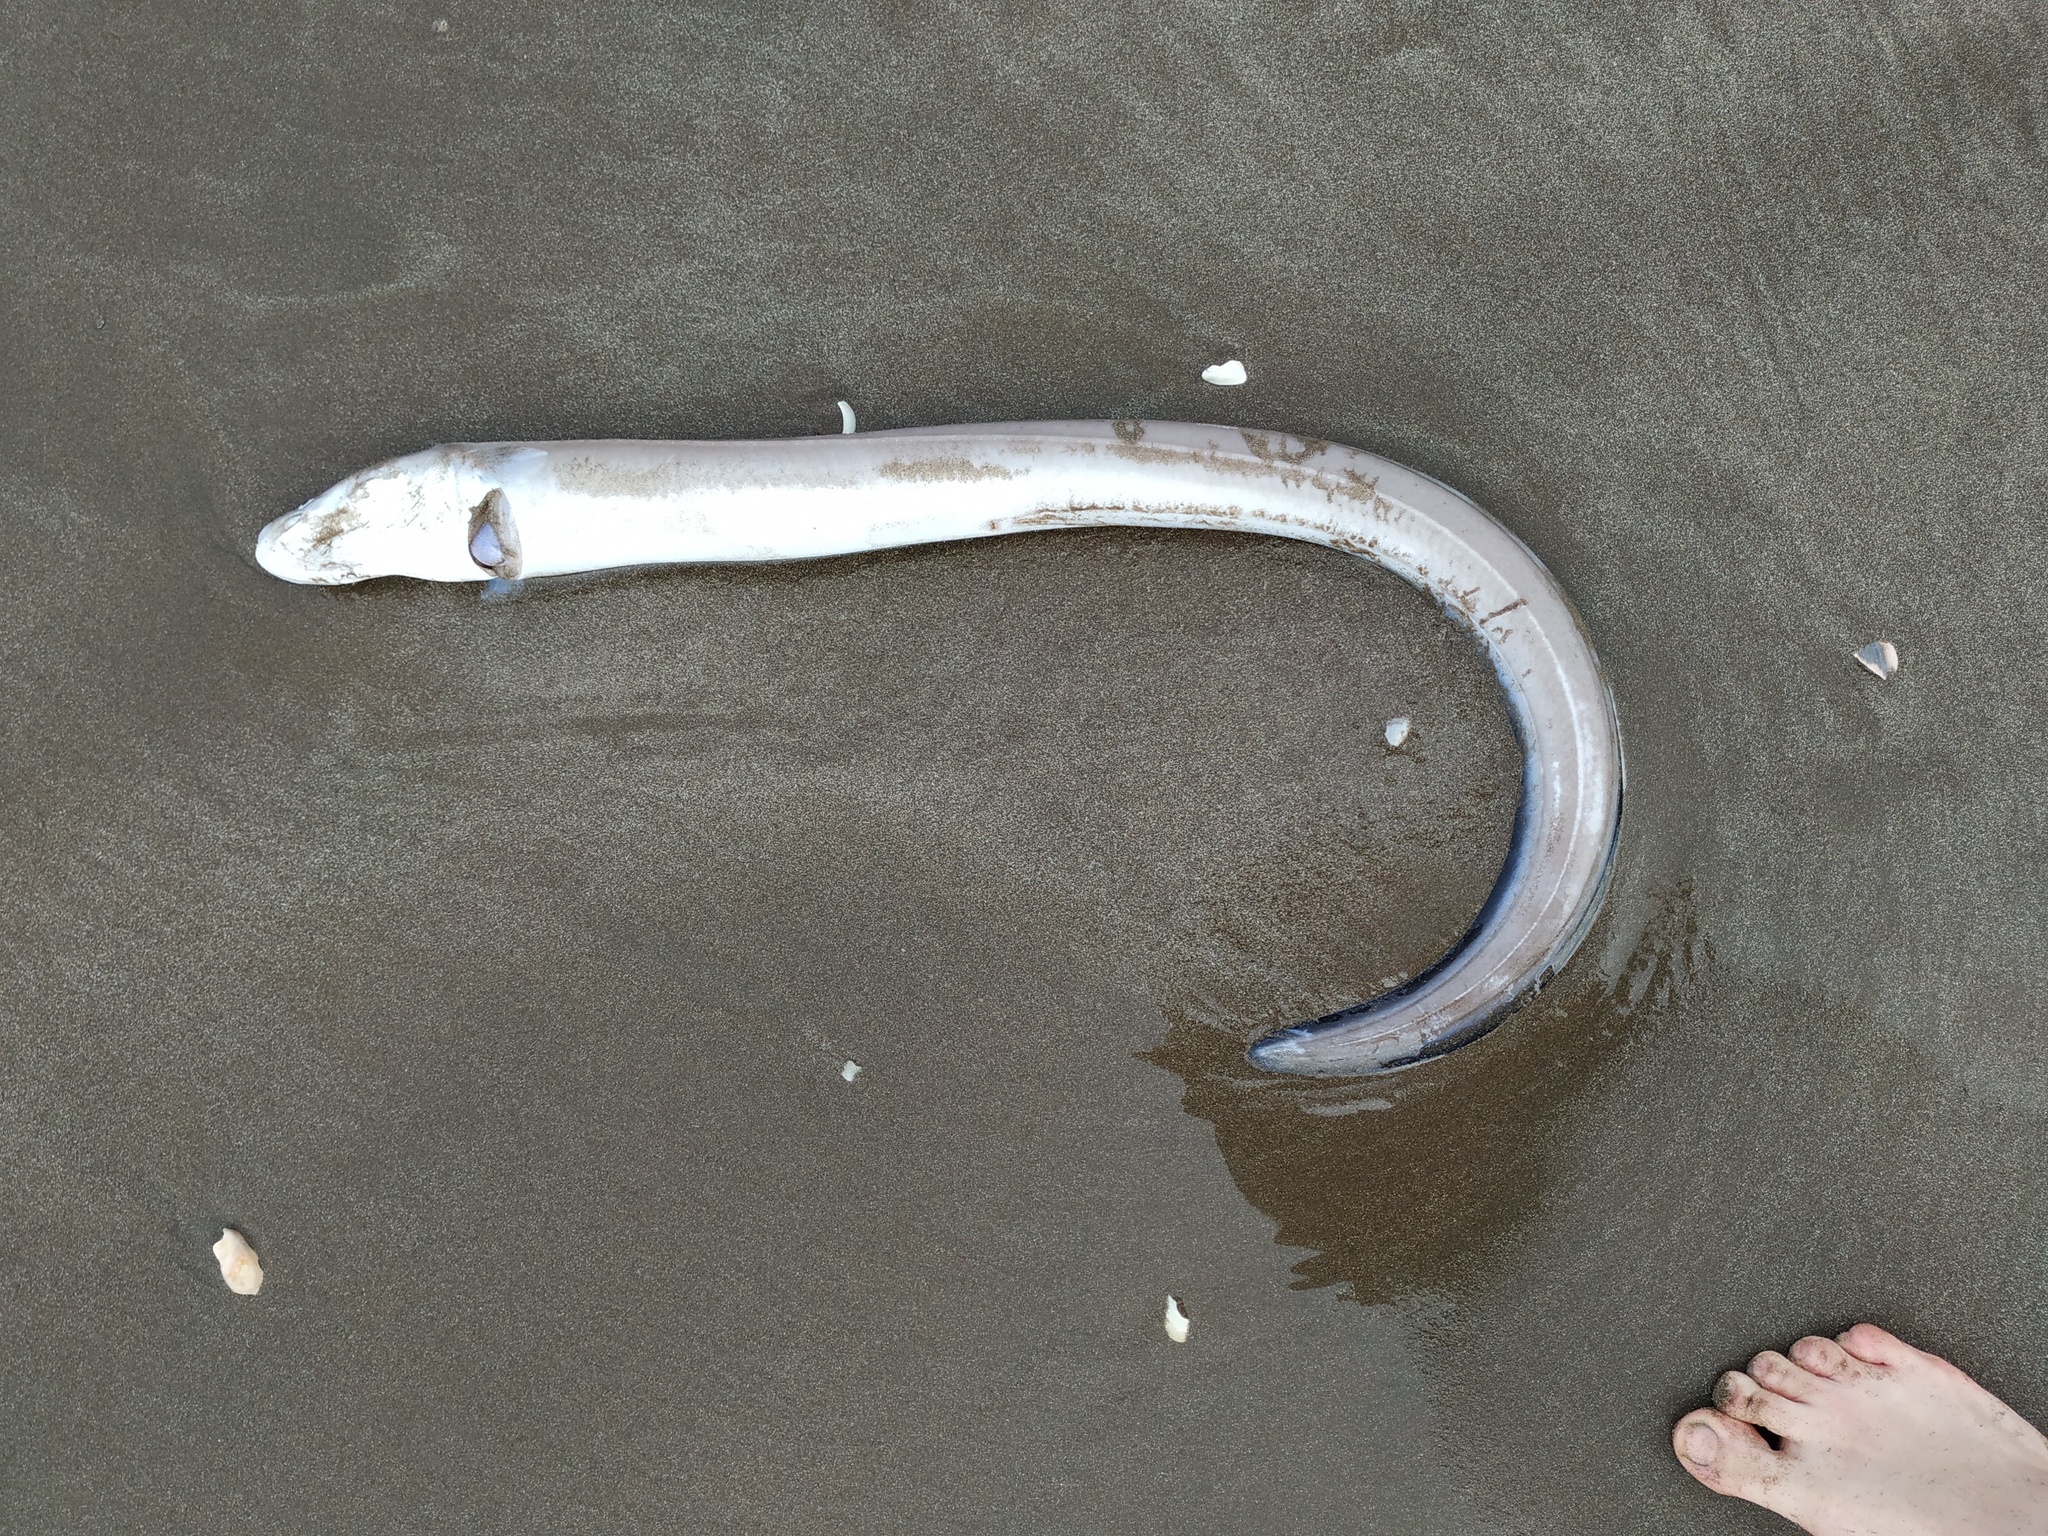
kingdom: Animalia
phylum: Chordata
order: Anguilliformes
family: Congridae
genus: Conger
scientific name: Conger orbignianus
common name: Argentine conger
